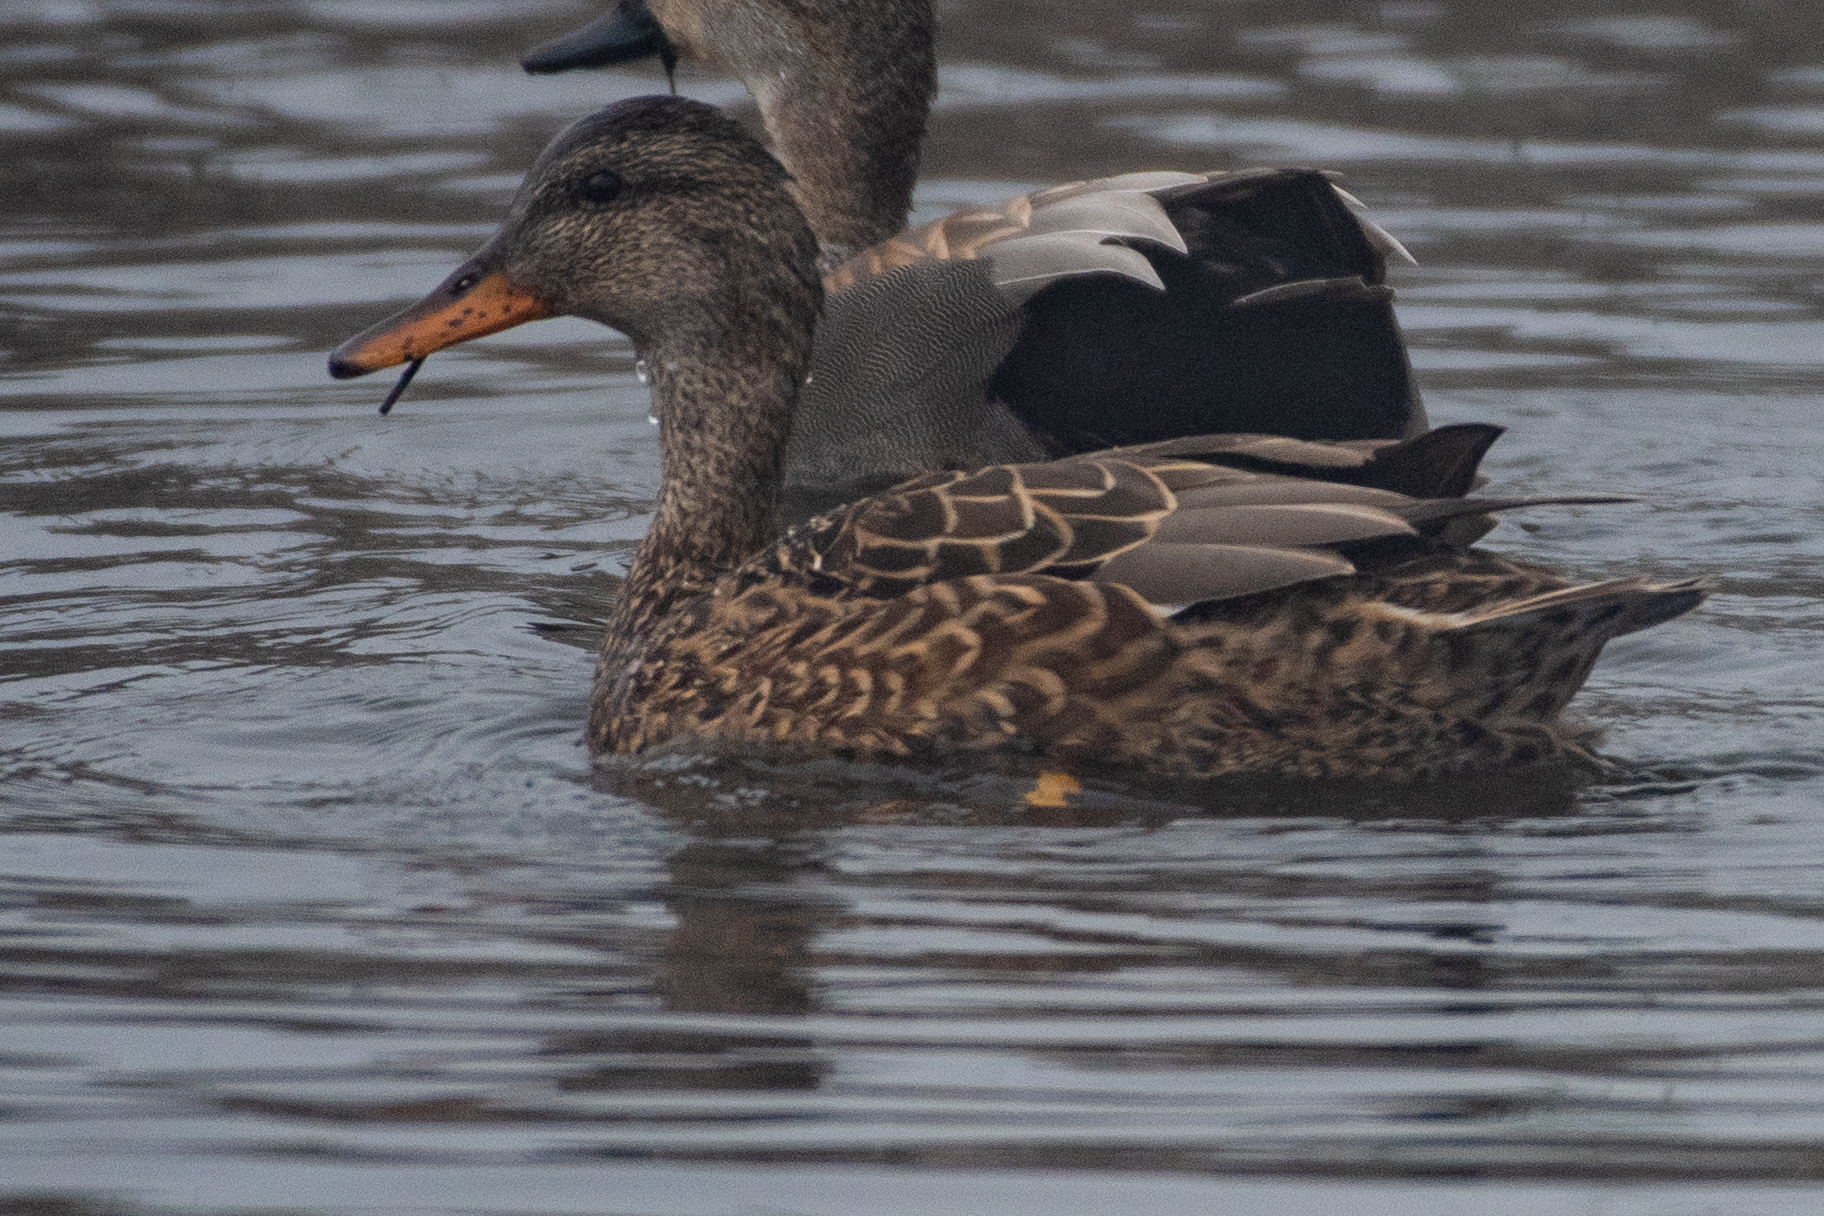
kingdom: Animalia
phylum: Chordata
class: Aves
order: Anseriformes
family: Anatidae
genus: Mareca
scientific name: Mareca strepera
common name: Gadwall
